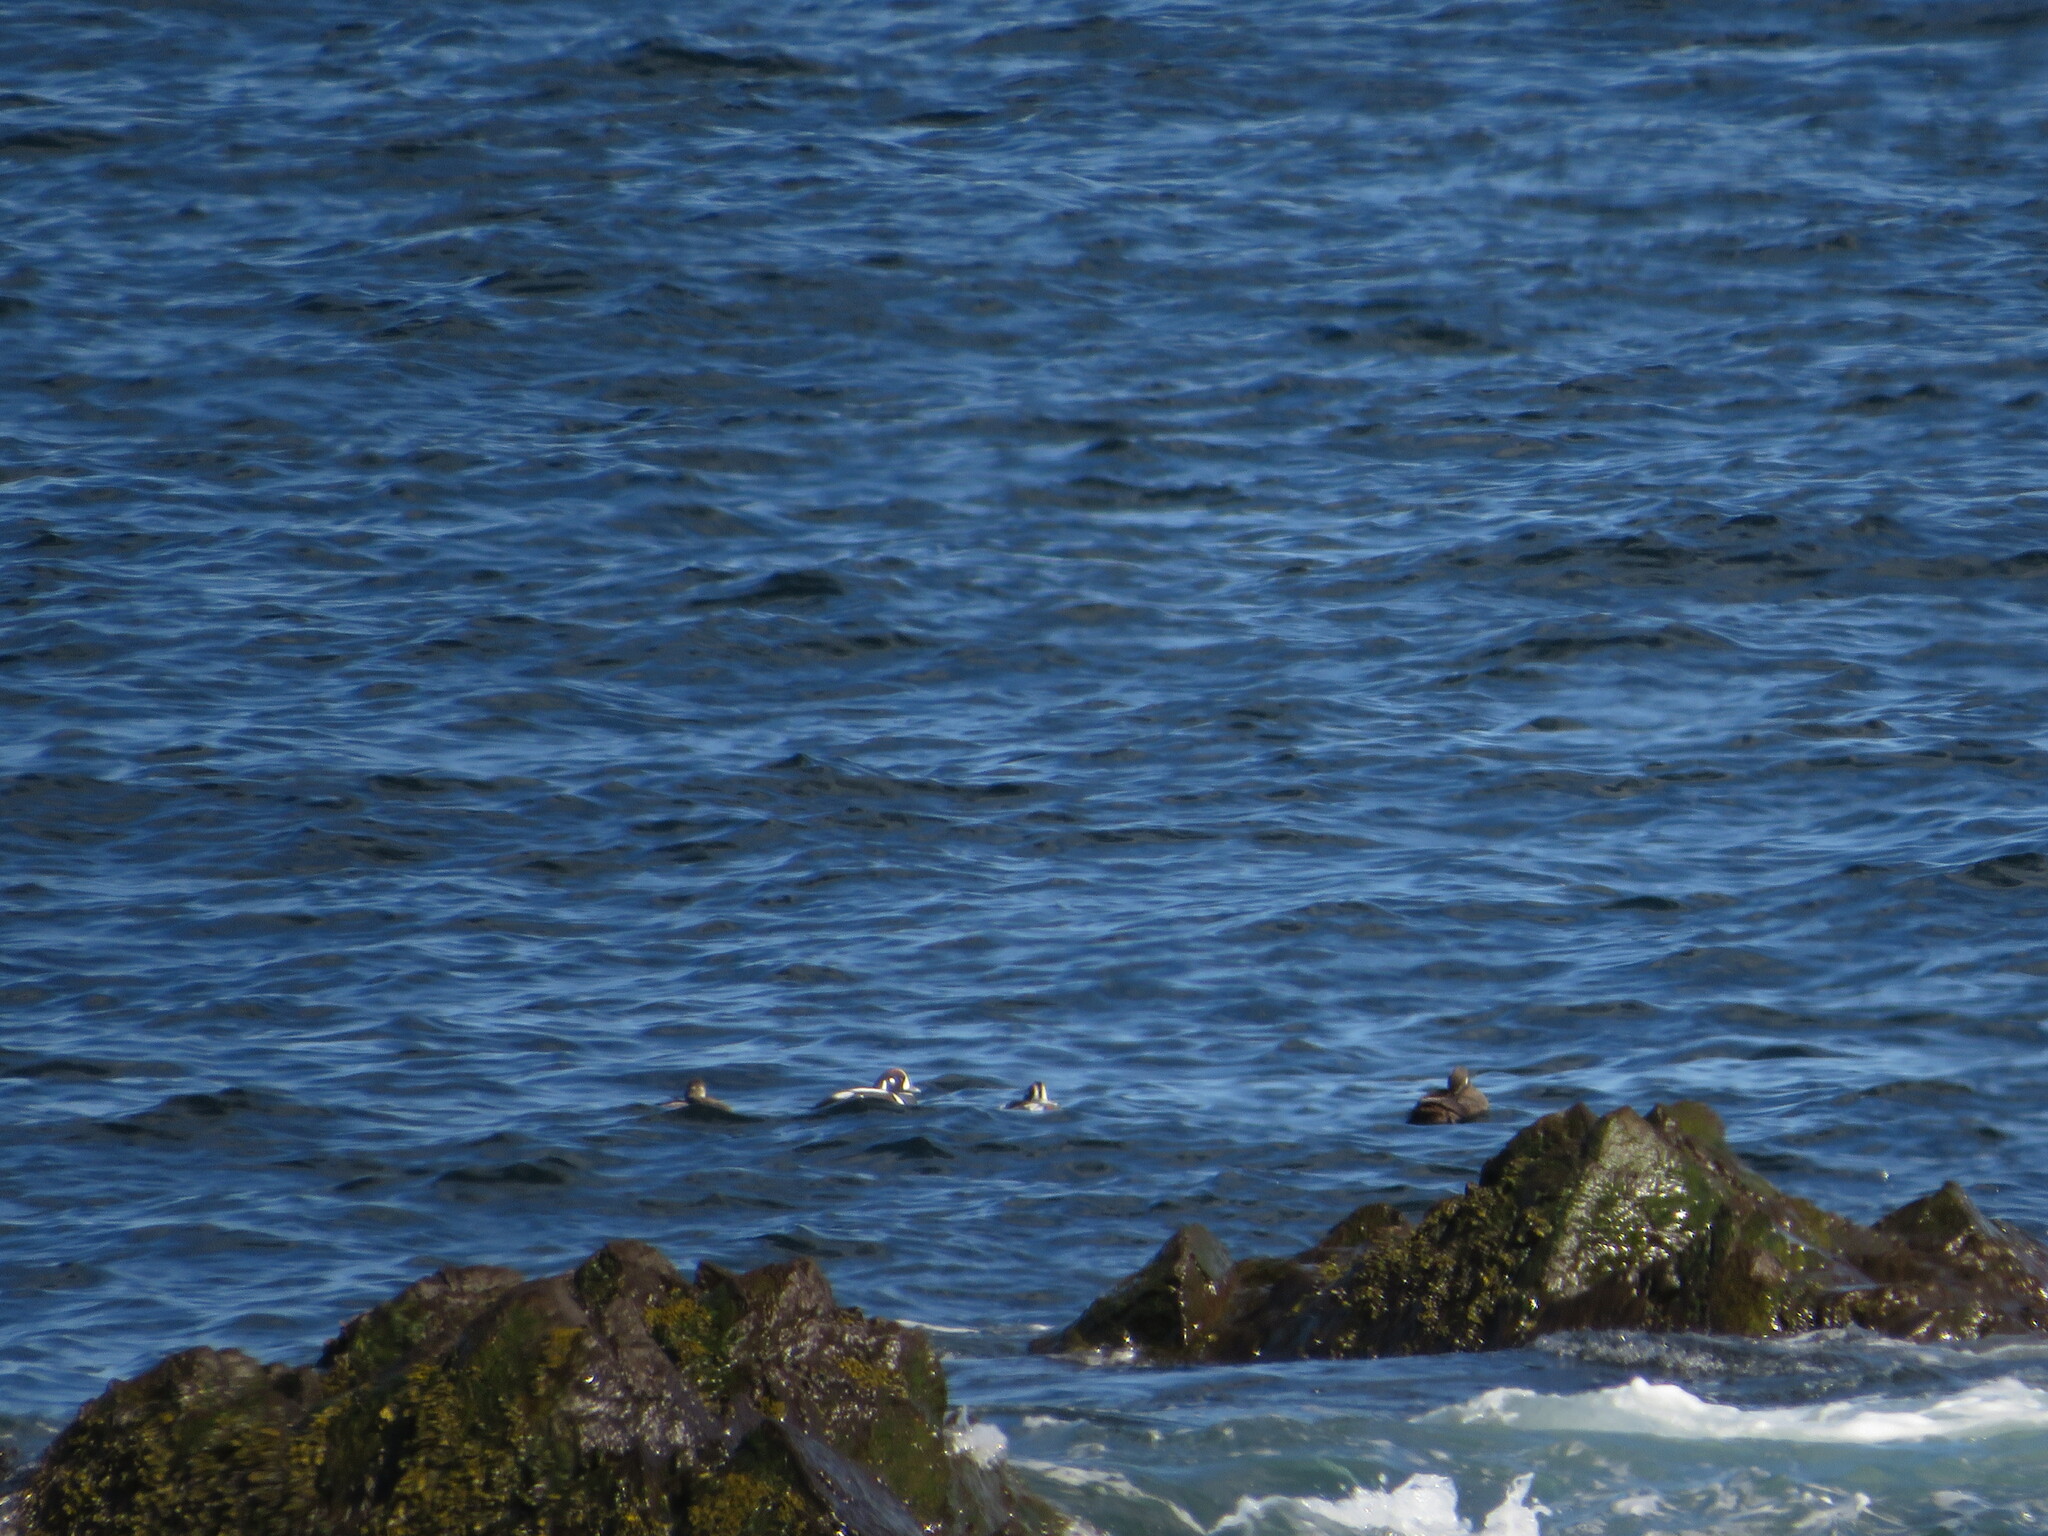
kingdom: Animalia
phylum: Chordata
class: Aves
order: Anseriformes
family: Anatidae
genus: Histrionicus
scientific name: Histrionicus histrionicus
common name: Harlequin duck
